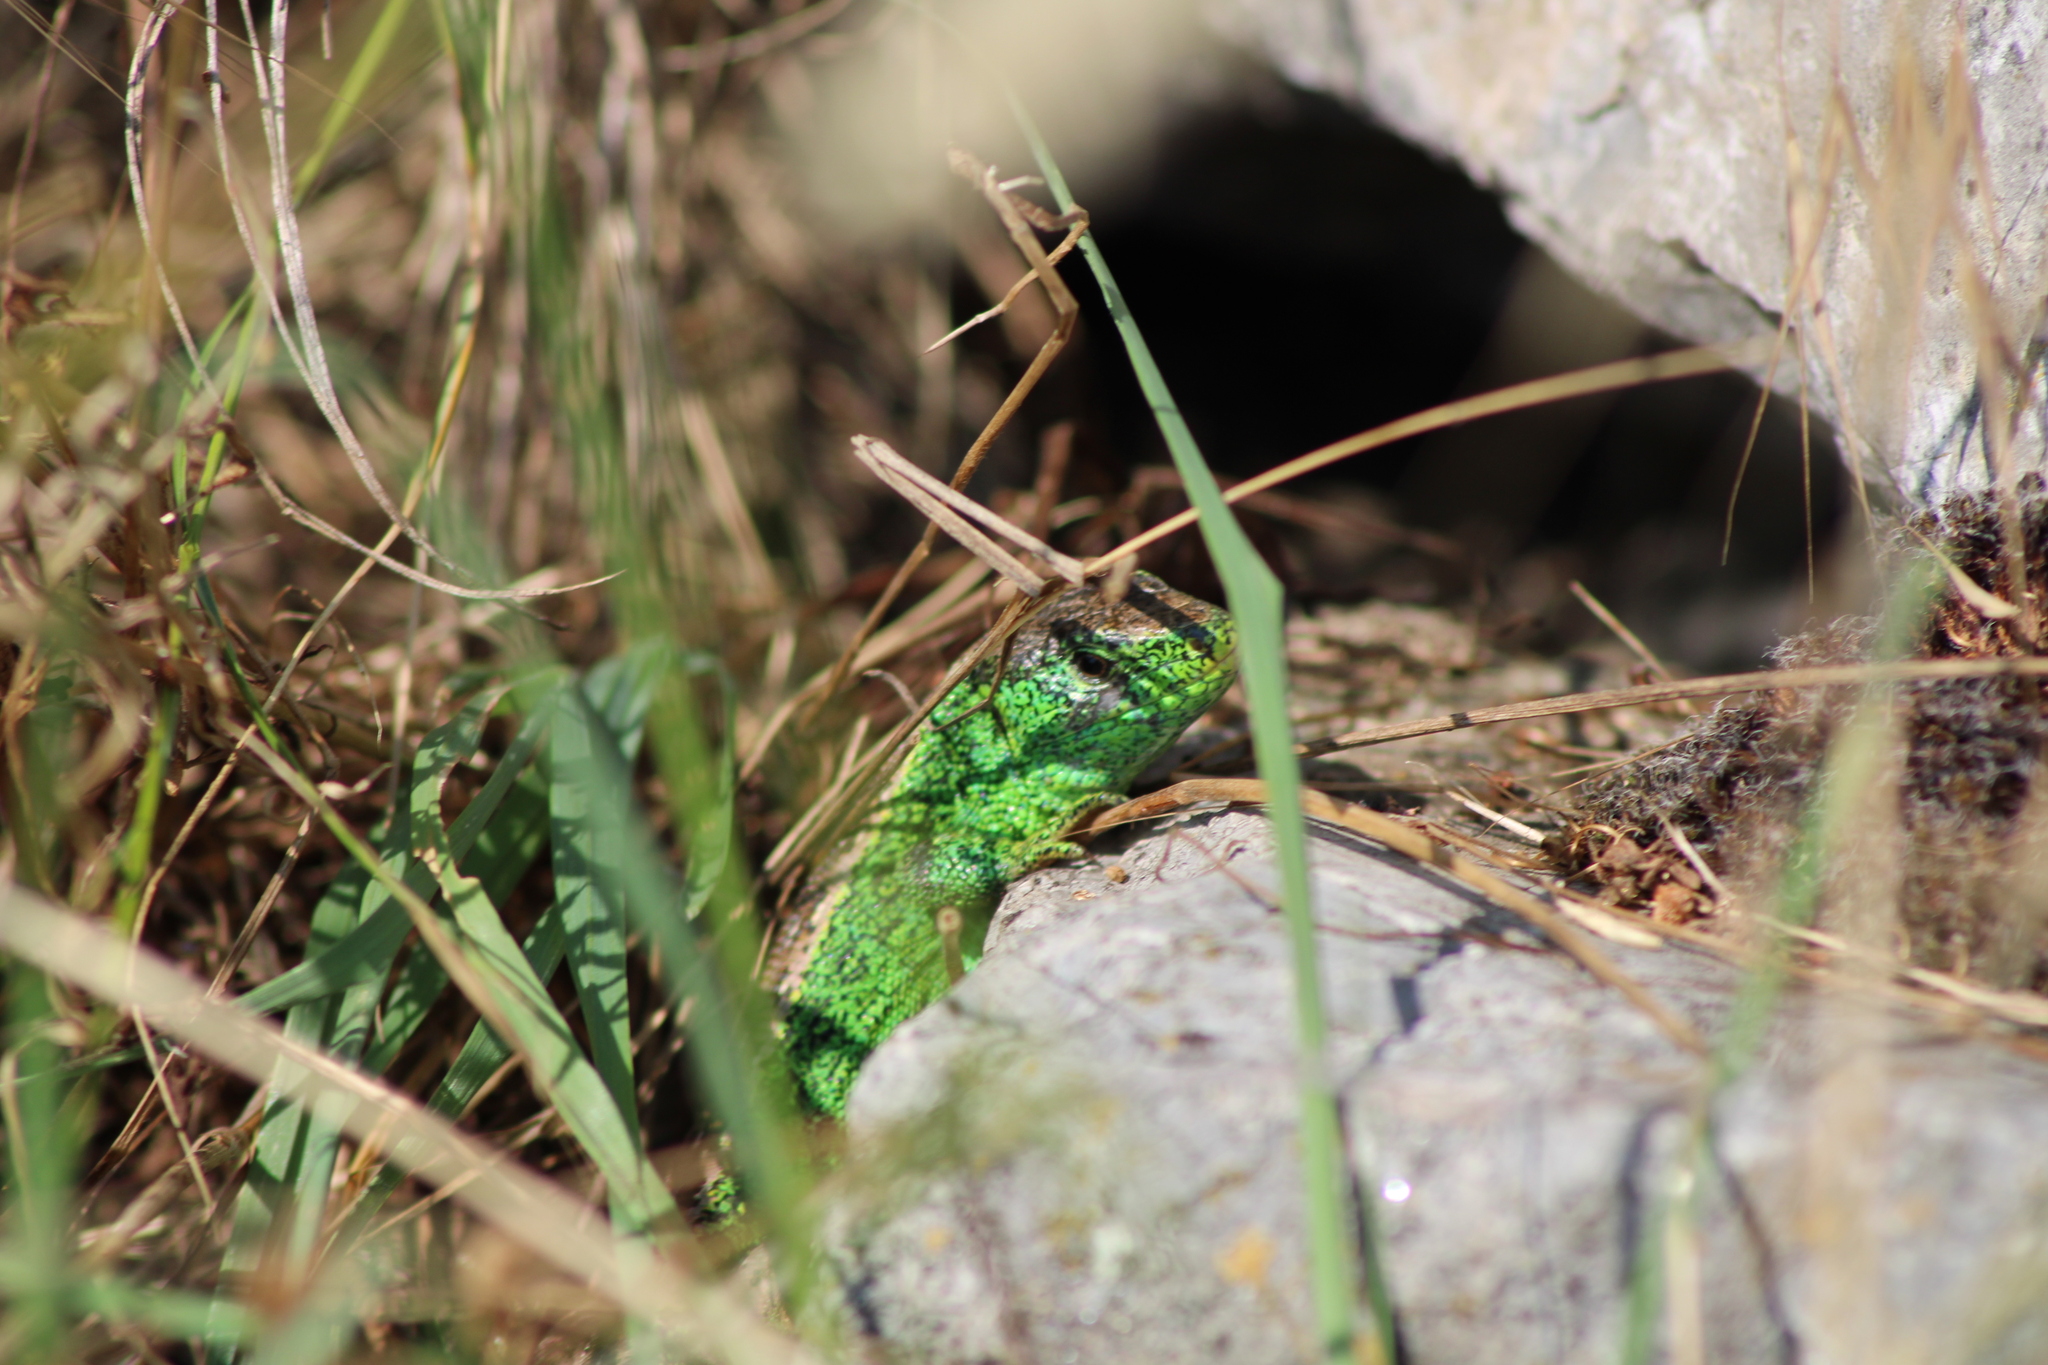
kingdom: Animalia
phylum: Chordata
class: Squamata
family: Lacertidae
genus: Lacerta
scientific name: Lacerta agilis
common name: Sand lizard
